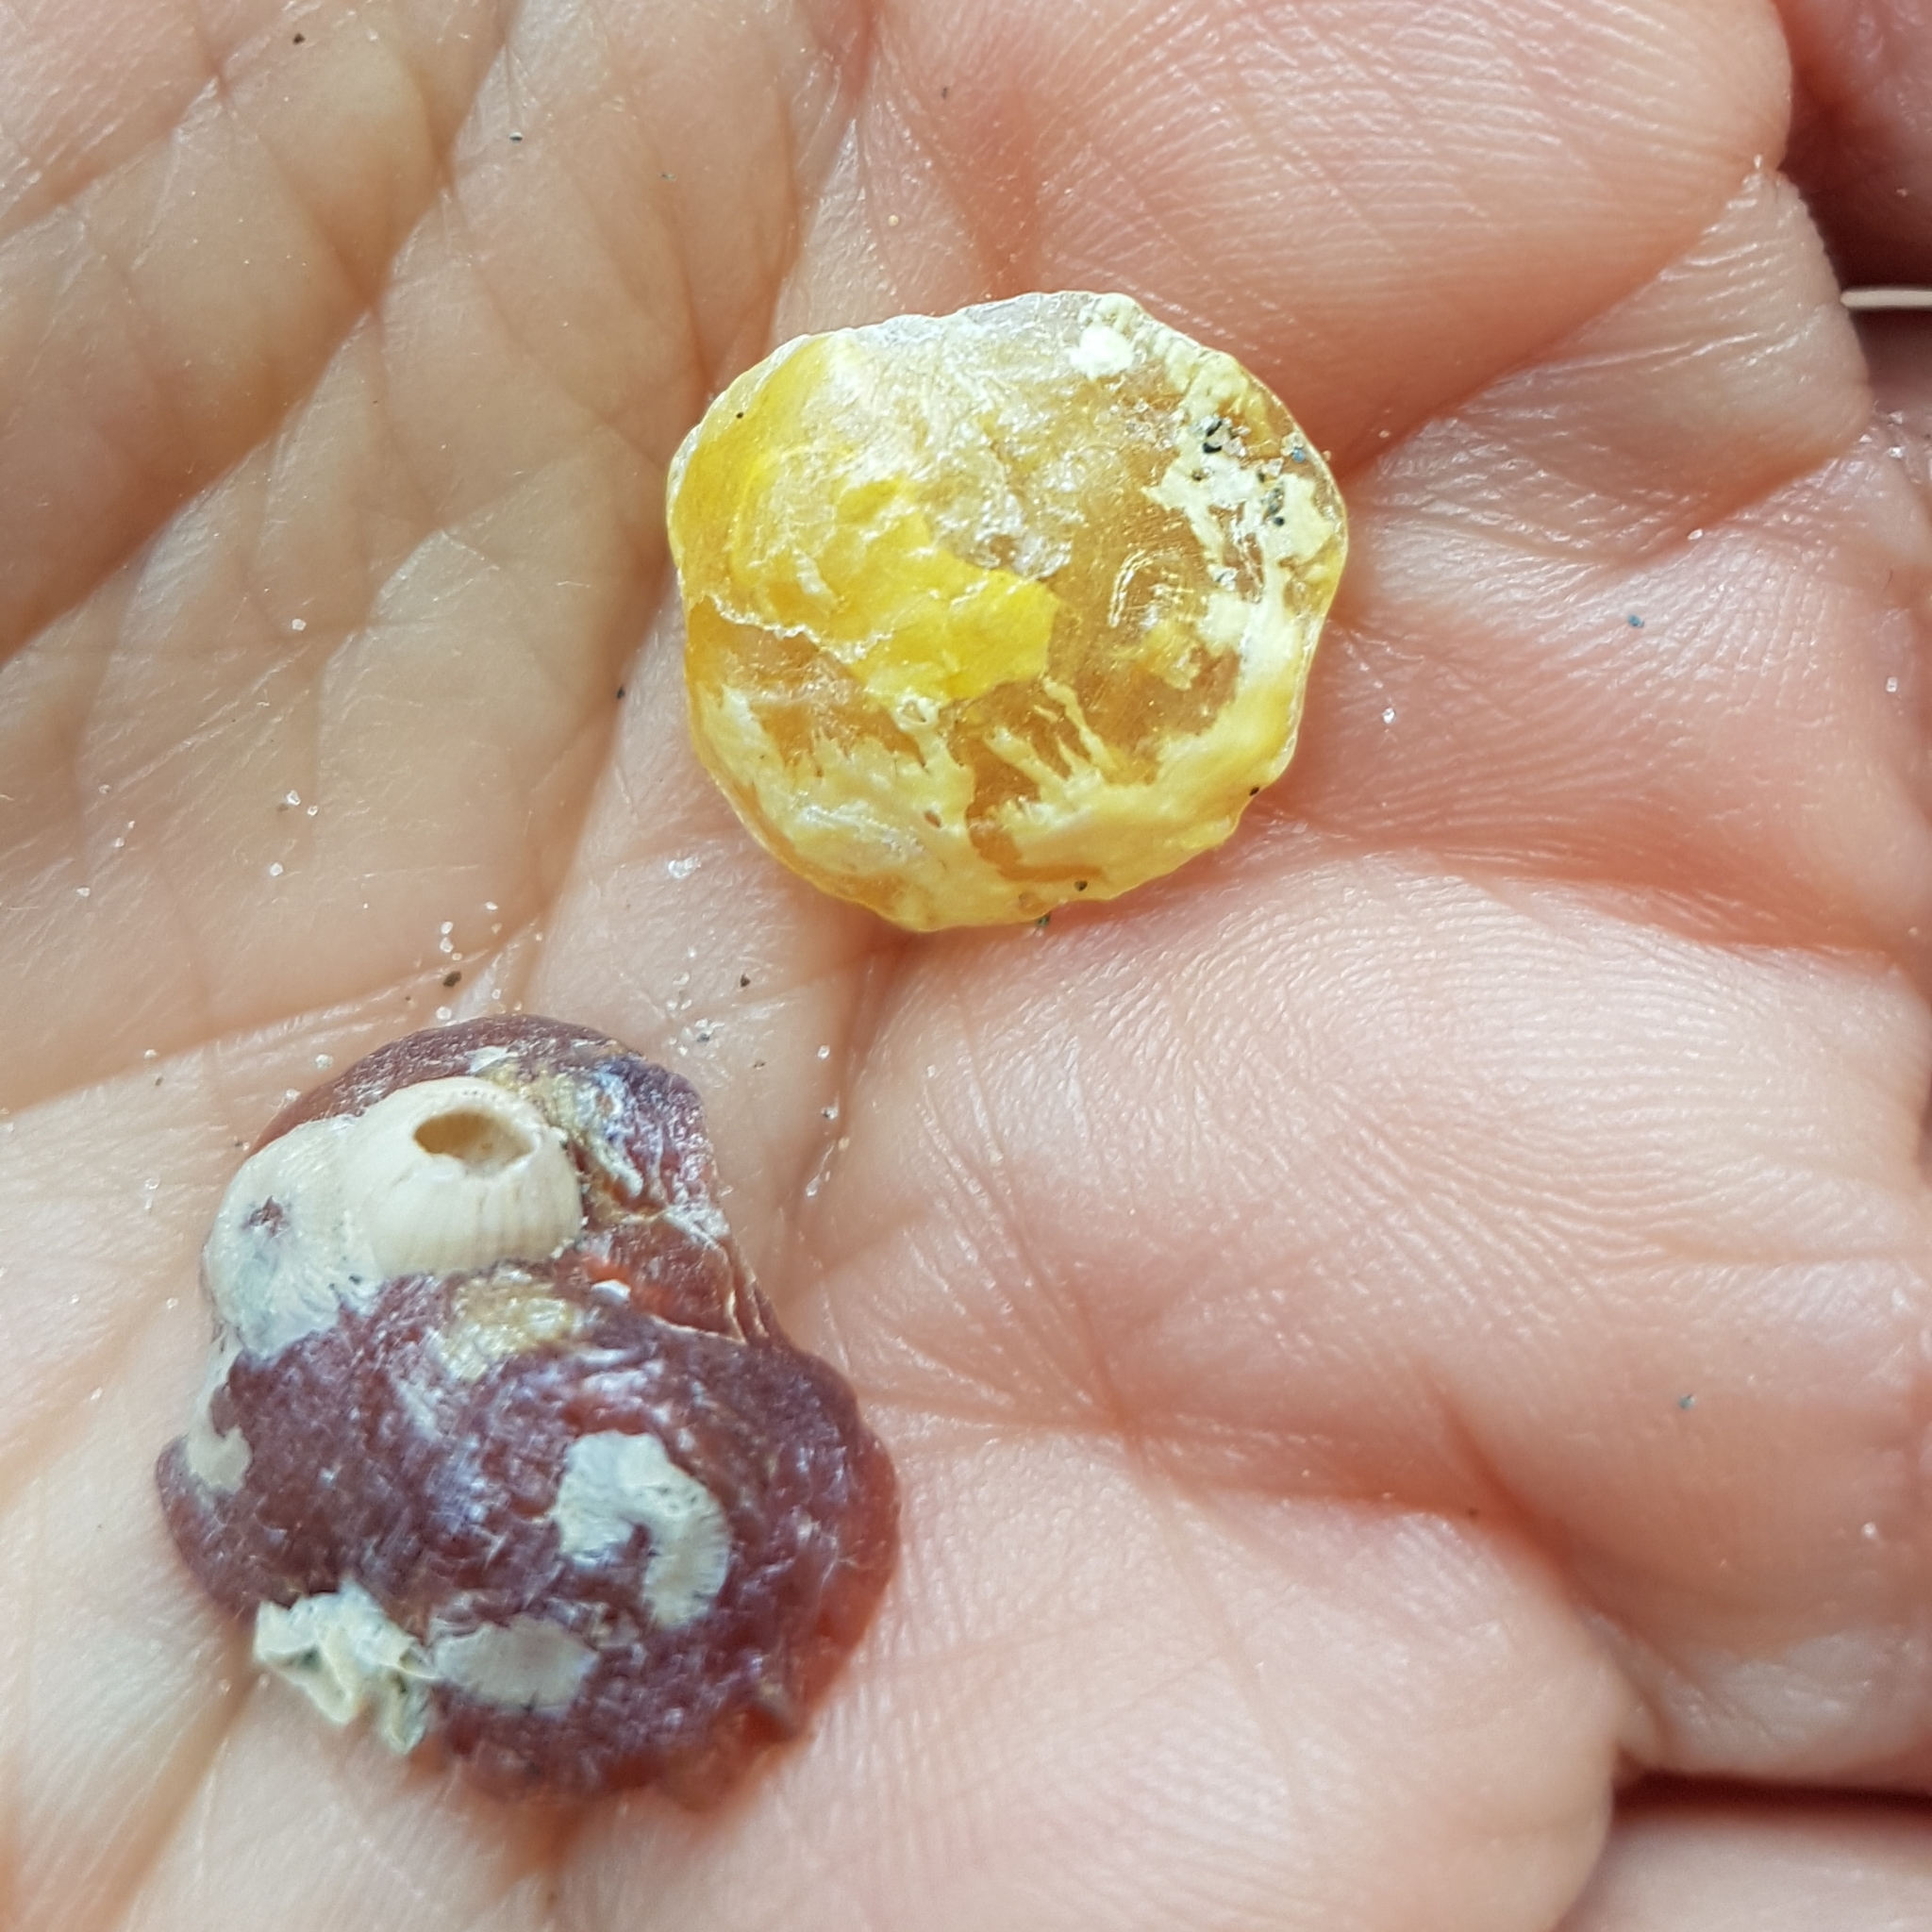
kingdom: Animalia
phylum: Mollusca
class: Bivalvia
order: Pectinida
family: Anomiidae
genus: Anomia
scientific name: Anomia ephippium
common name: Saddle oyster
